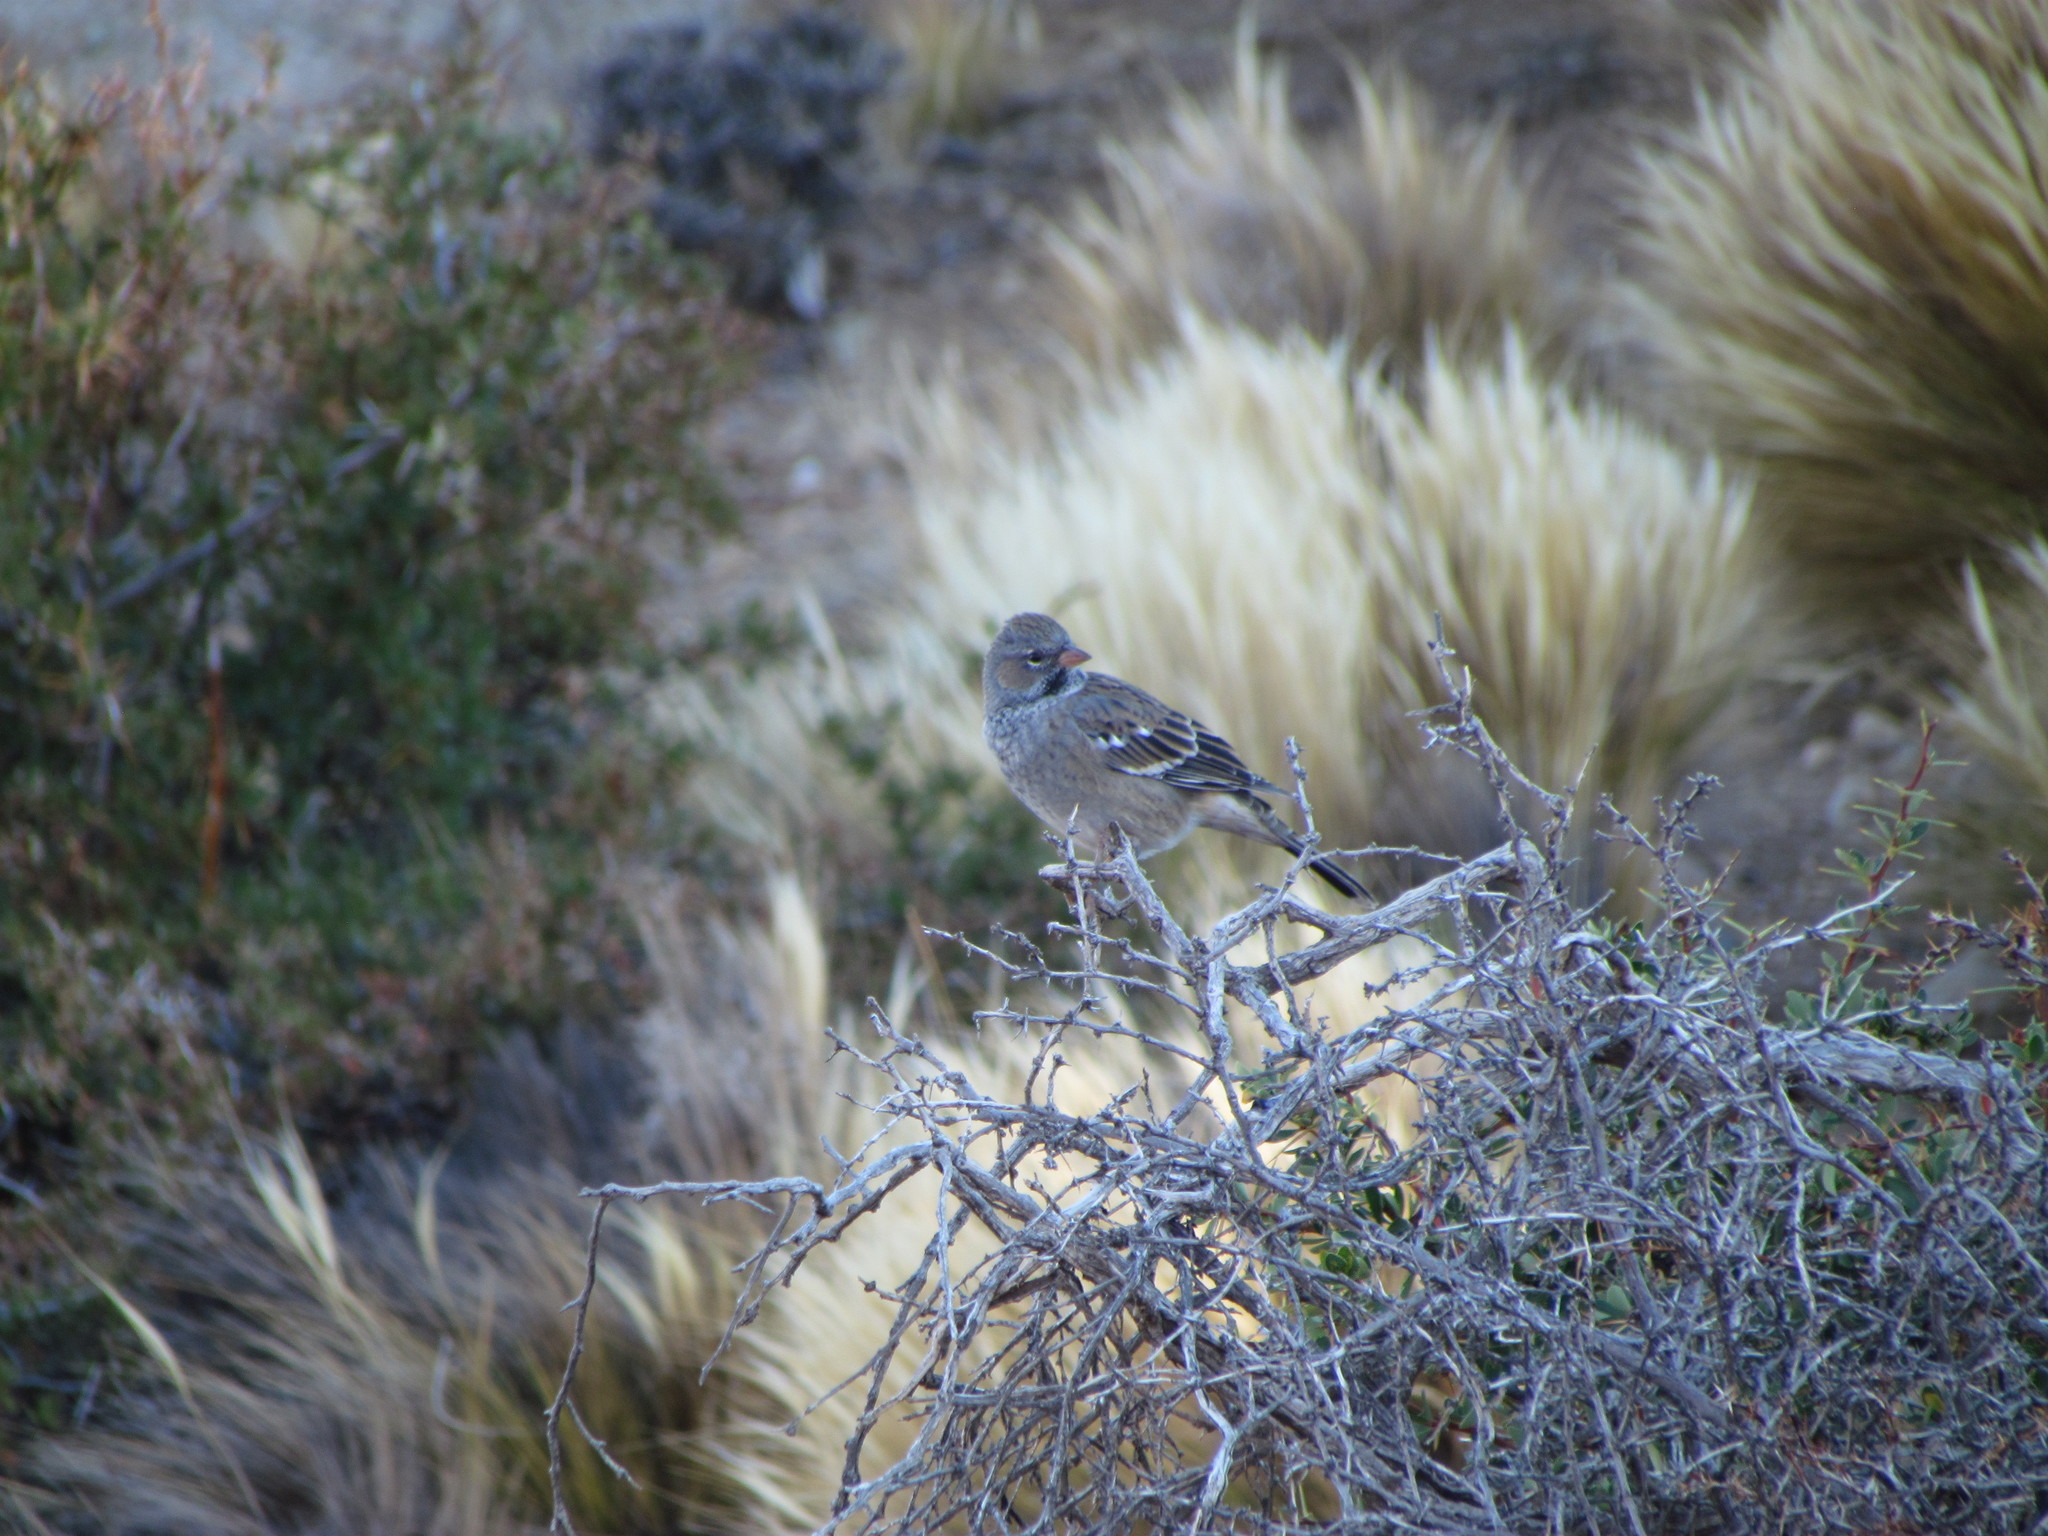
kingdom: Animalia
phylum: Chordata
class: Aves
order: Passeriformes
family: Thraupidae
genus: Rhopospina
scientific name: Rhopospina fruticeti
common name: Mourning sierra finch
